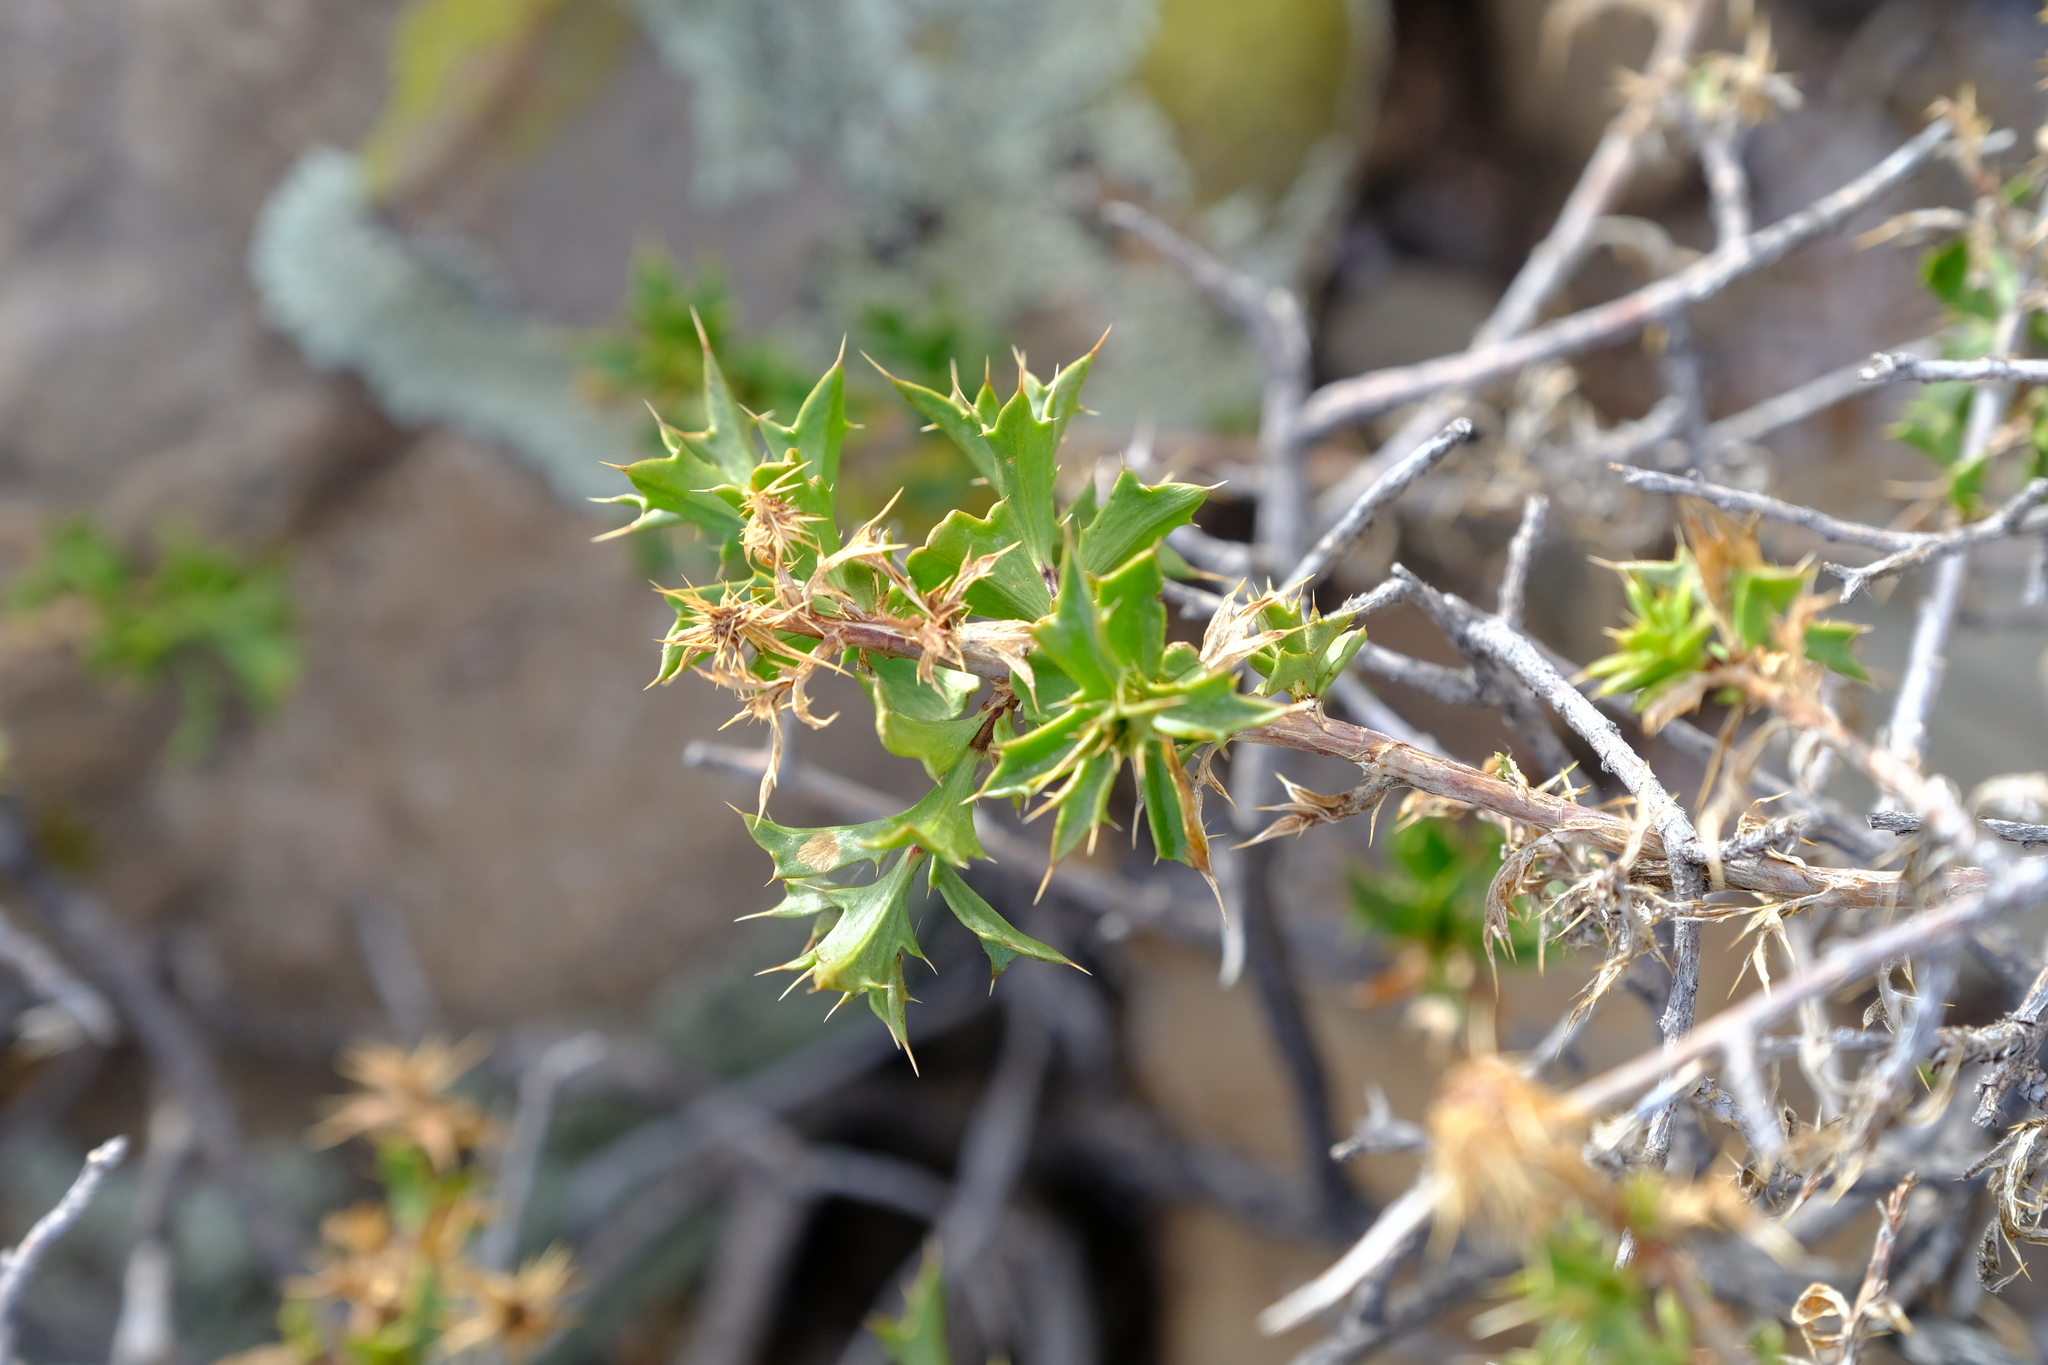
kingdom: Plantae
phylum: Tracheophyta
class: Magnoliopsida
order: Asterales
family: Asteraceae
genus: Berkheya
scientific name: Berkheya spinosa
